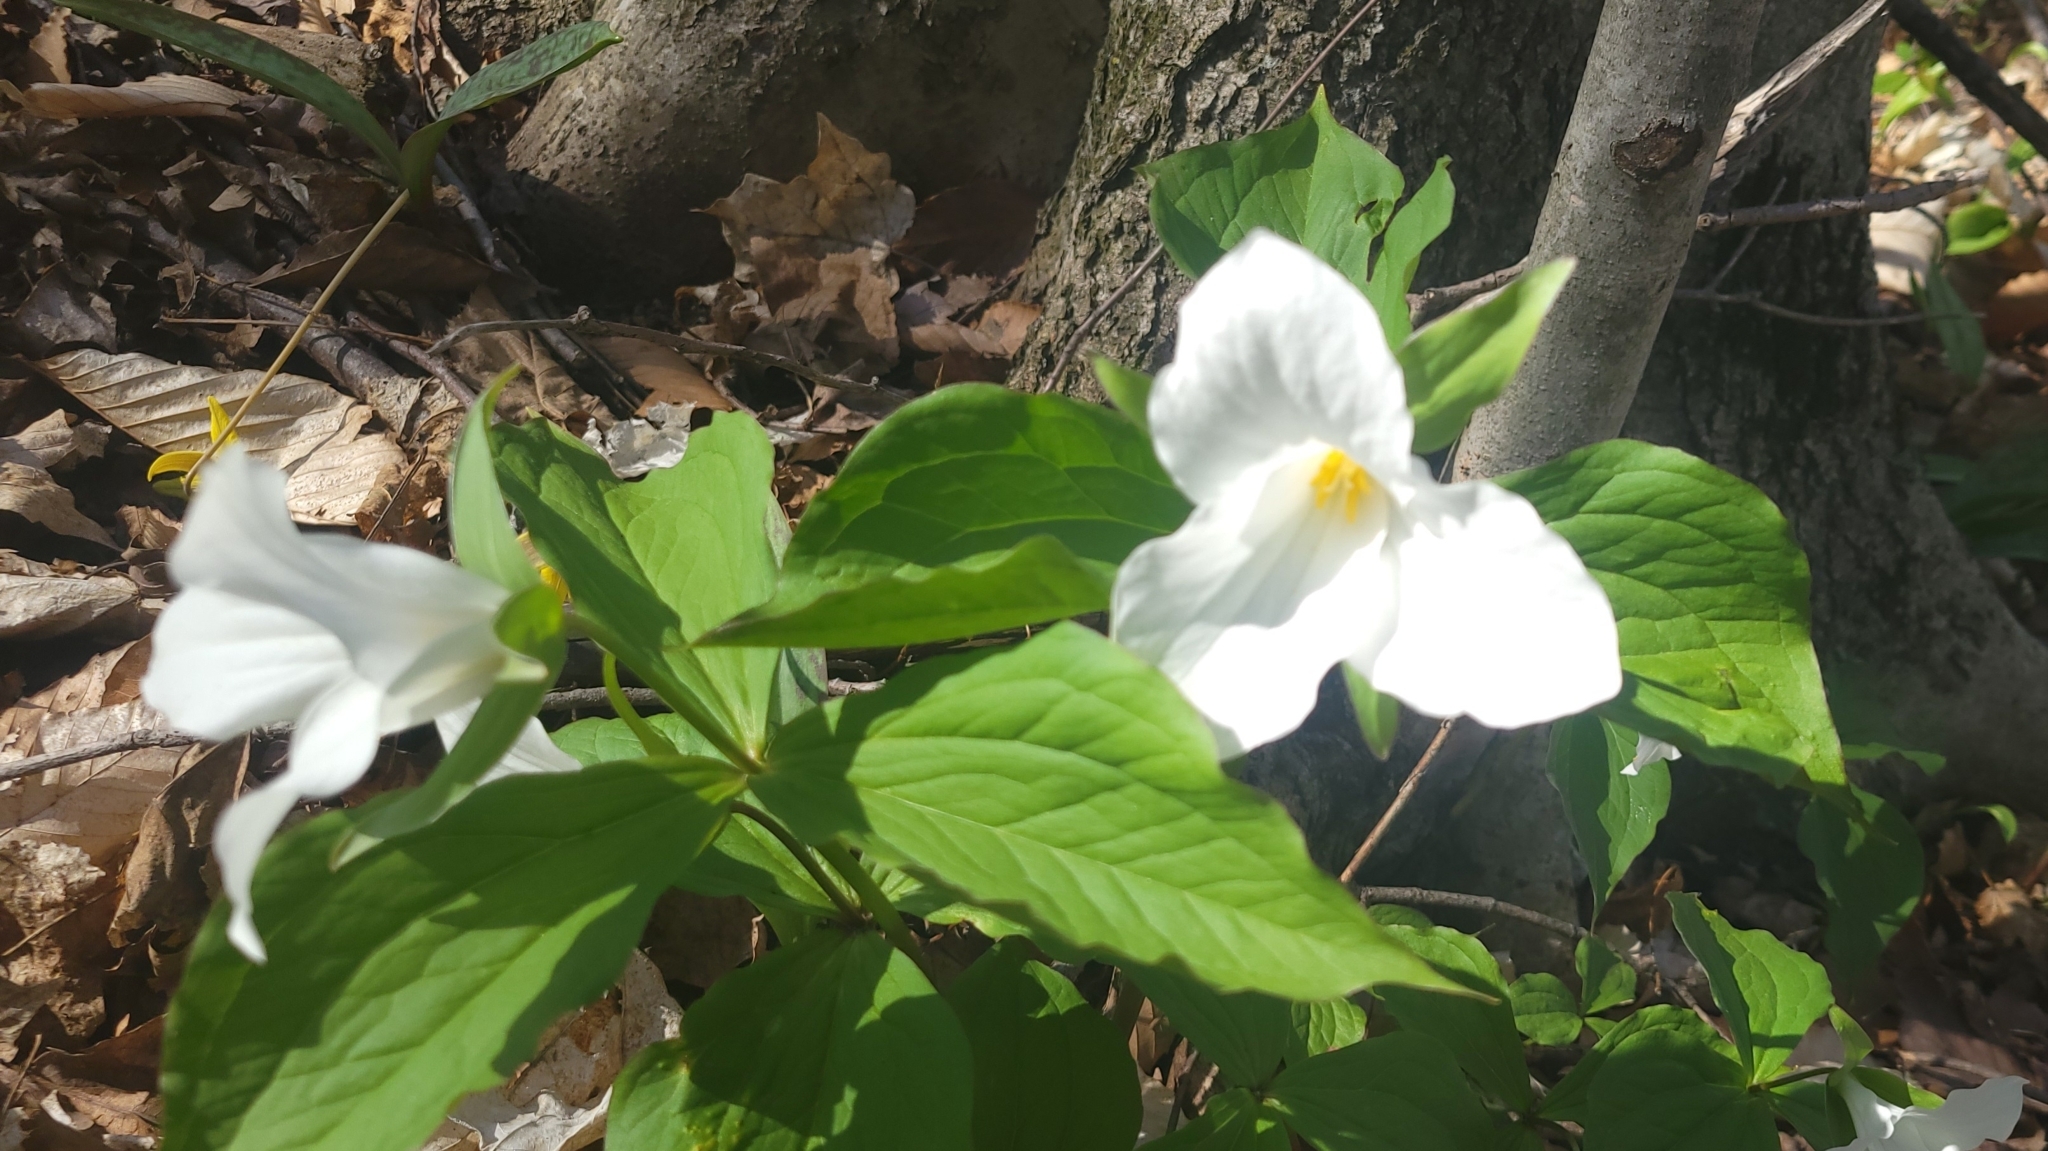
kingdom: Plantae
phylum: Tracheophyta
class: Liliopsida
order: Liliales
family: Melanthiaceae
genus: Trillium
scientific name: Trillium grandiflorum
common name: Great white trillium
